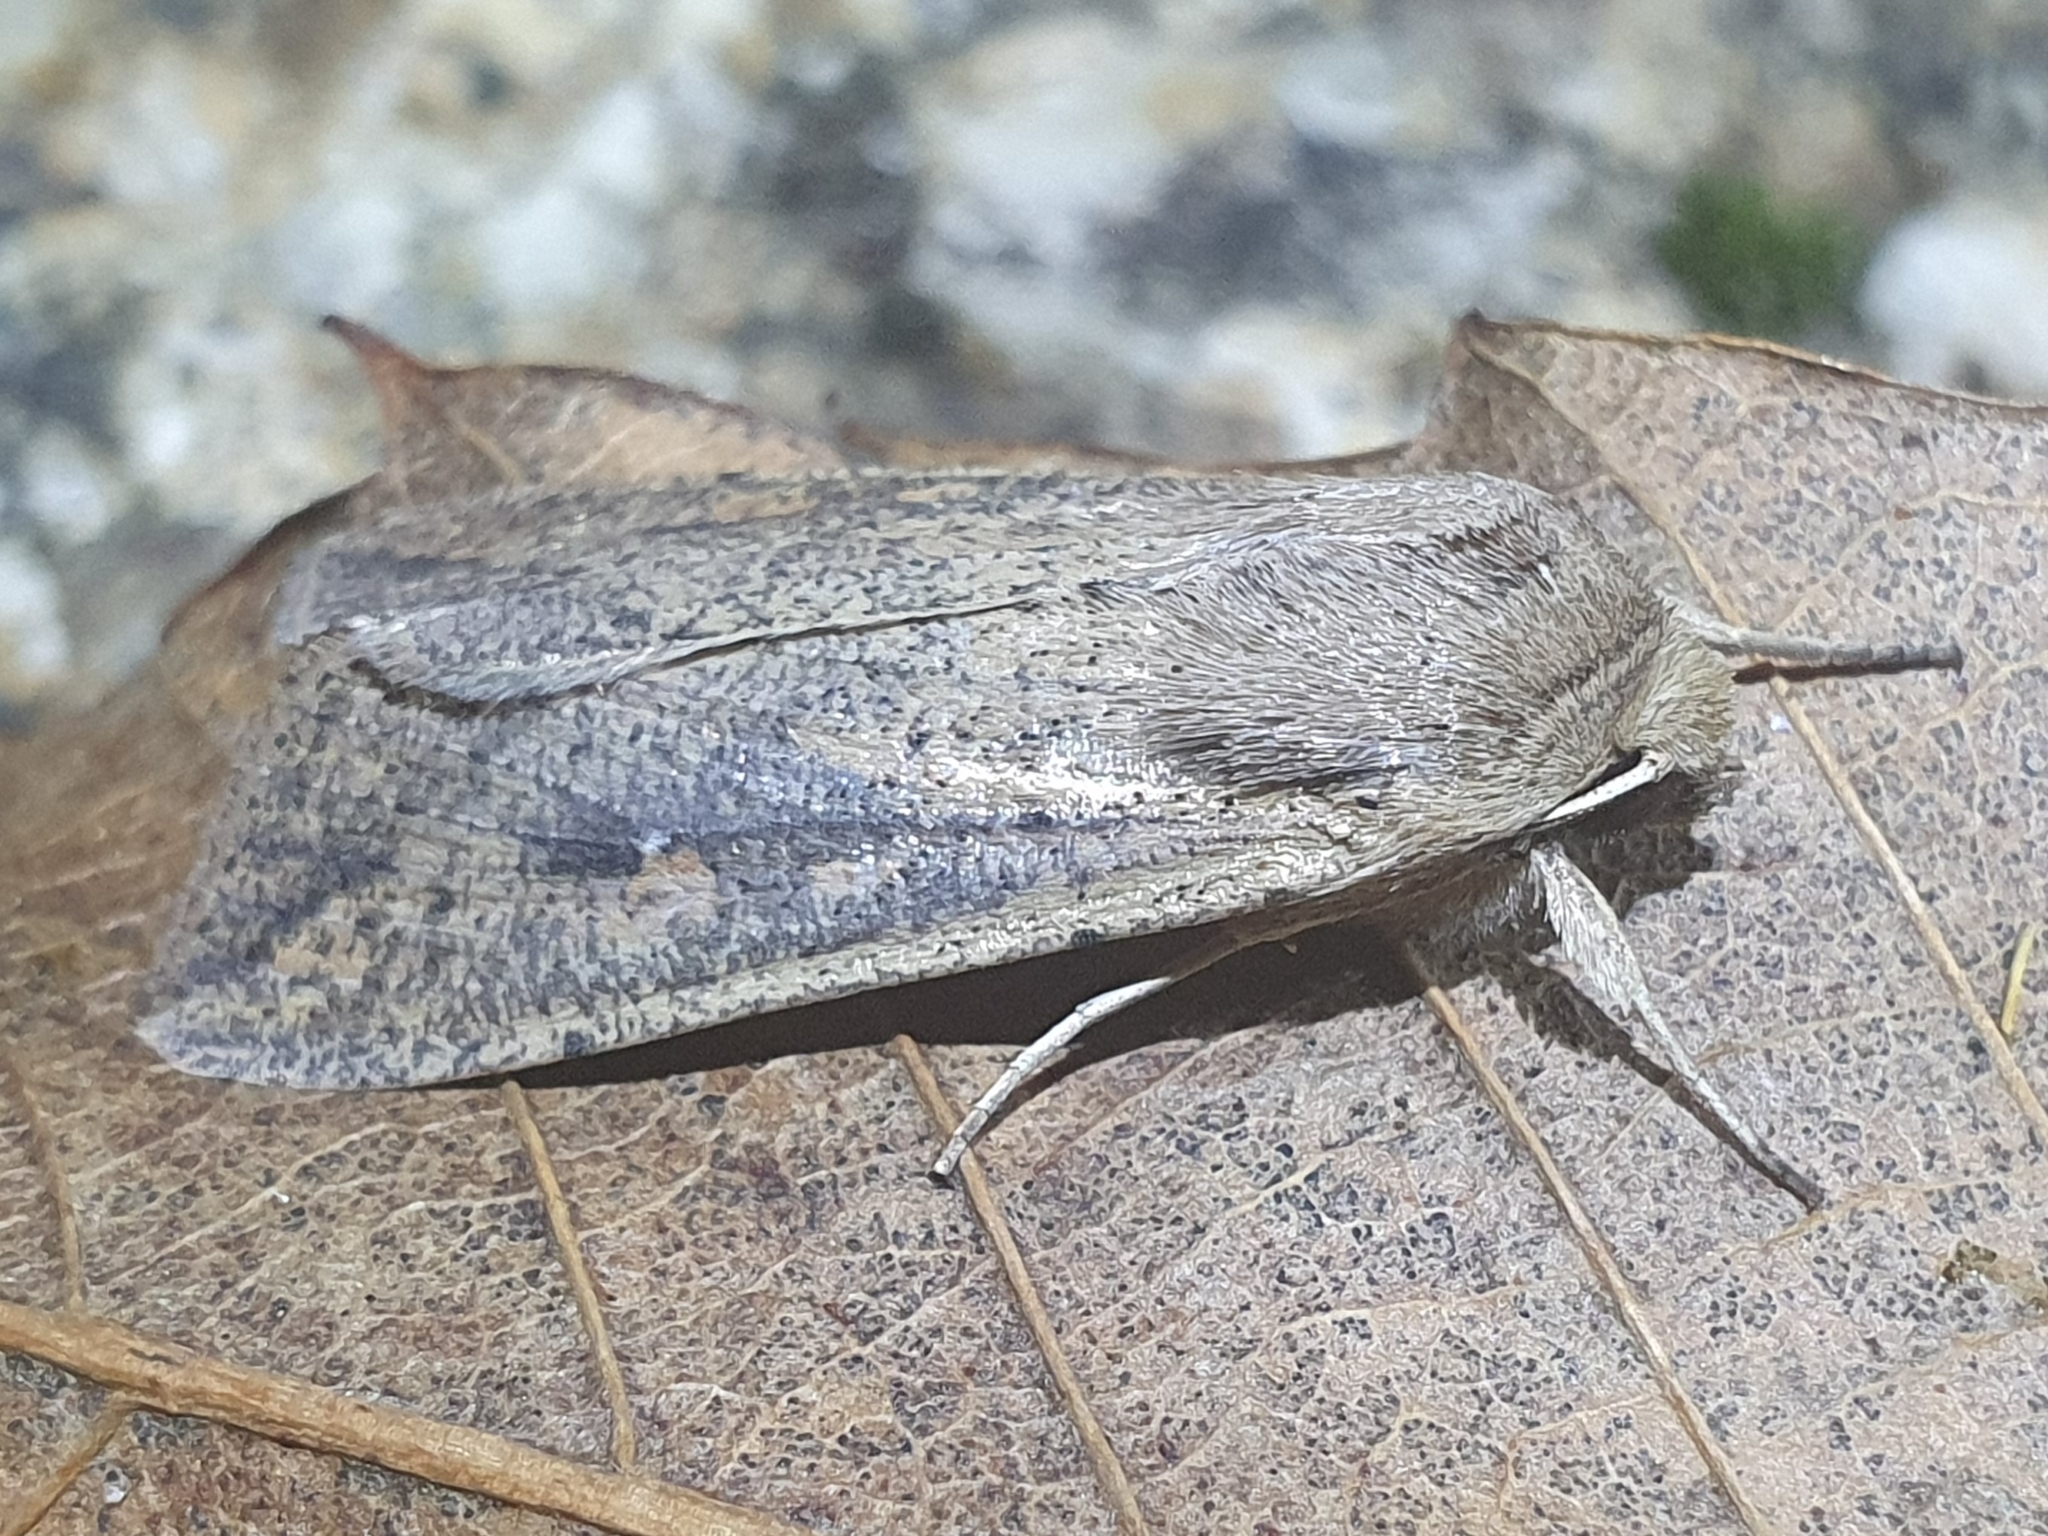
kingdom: Animalia
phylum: Arthropoda
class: Insecta
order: Lepidoptera
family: Noctuidae
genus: Mythimna
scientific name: Mythimna unipuncta
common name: White-speck
